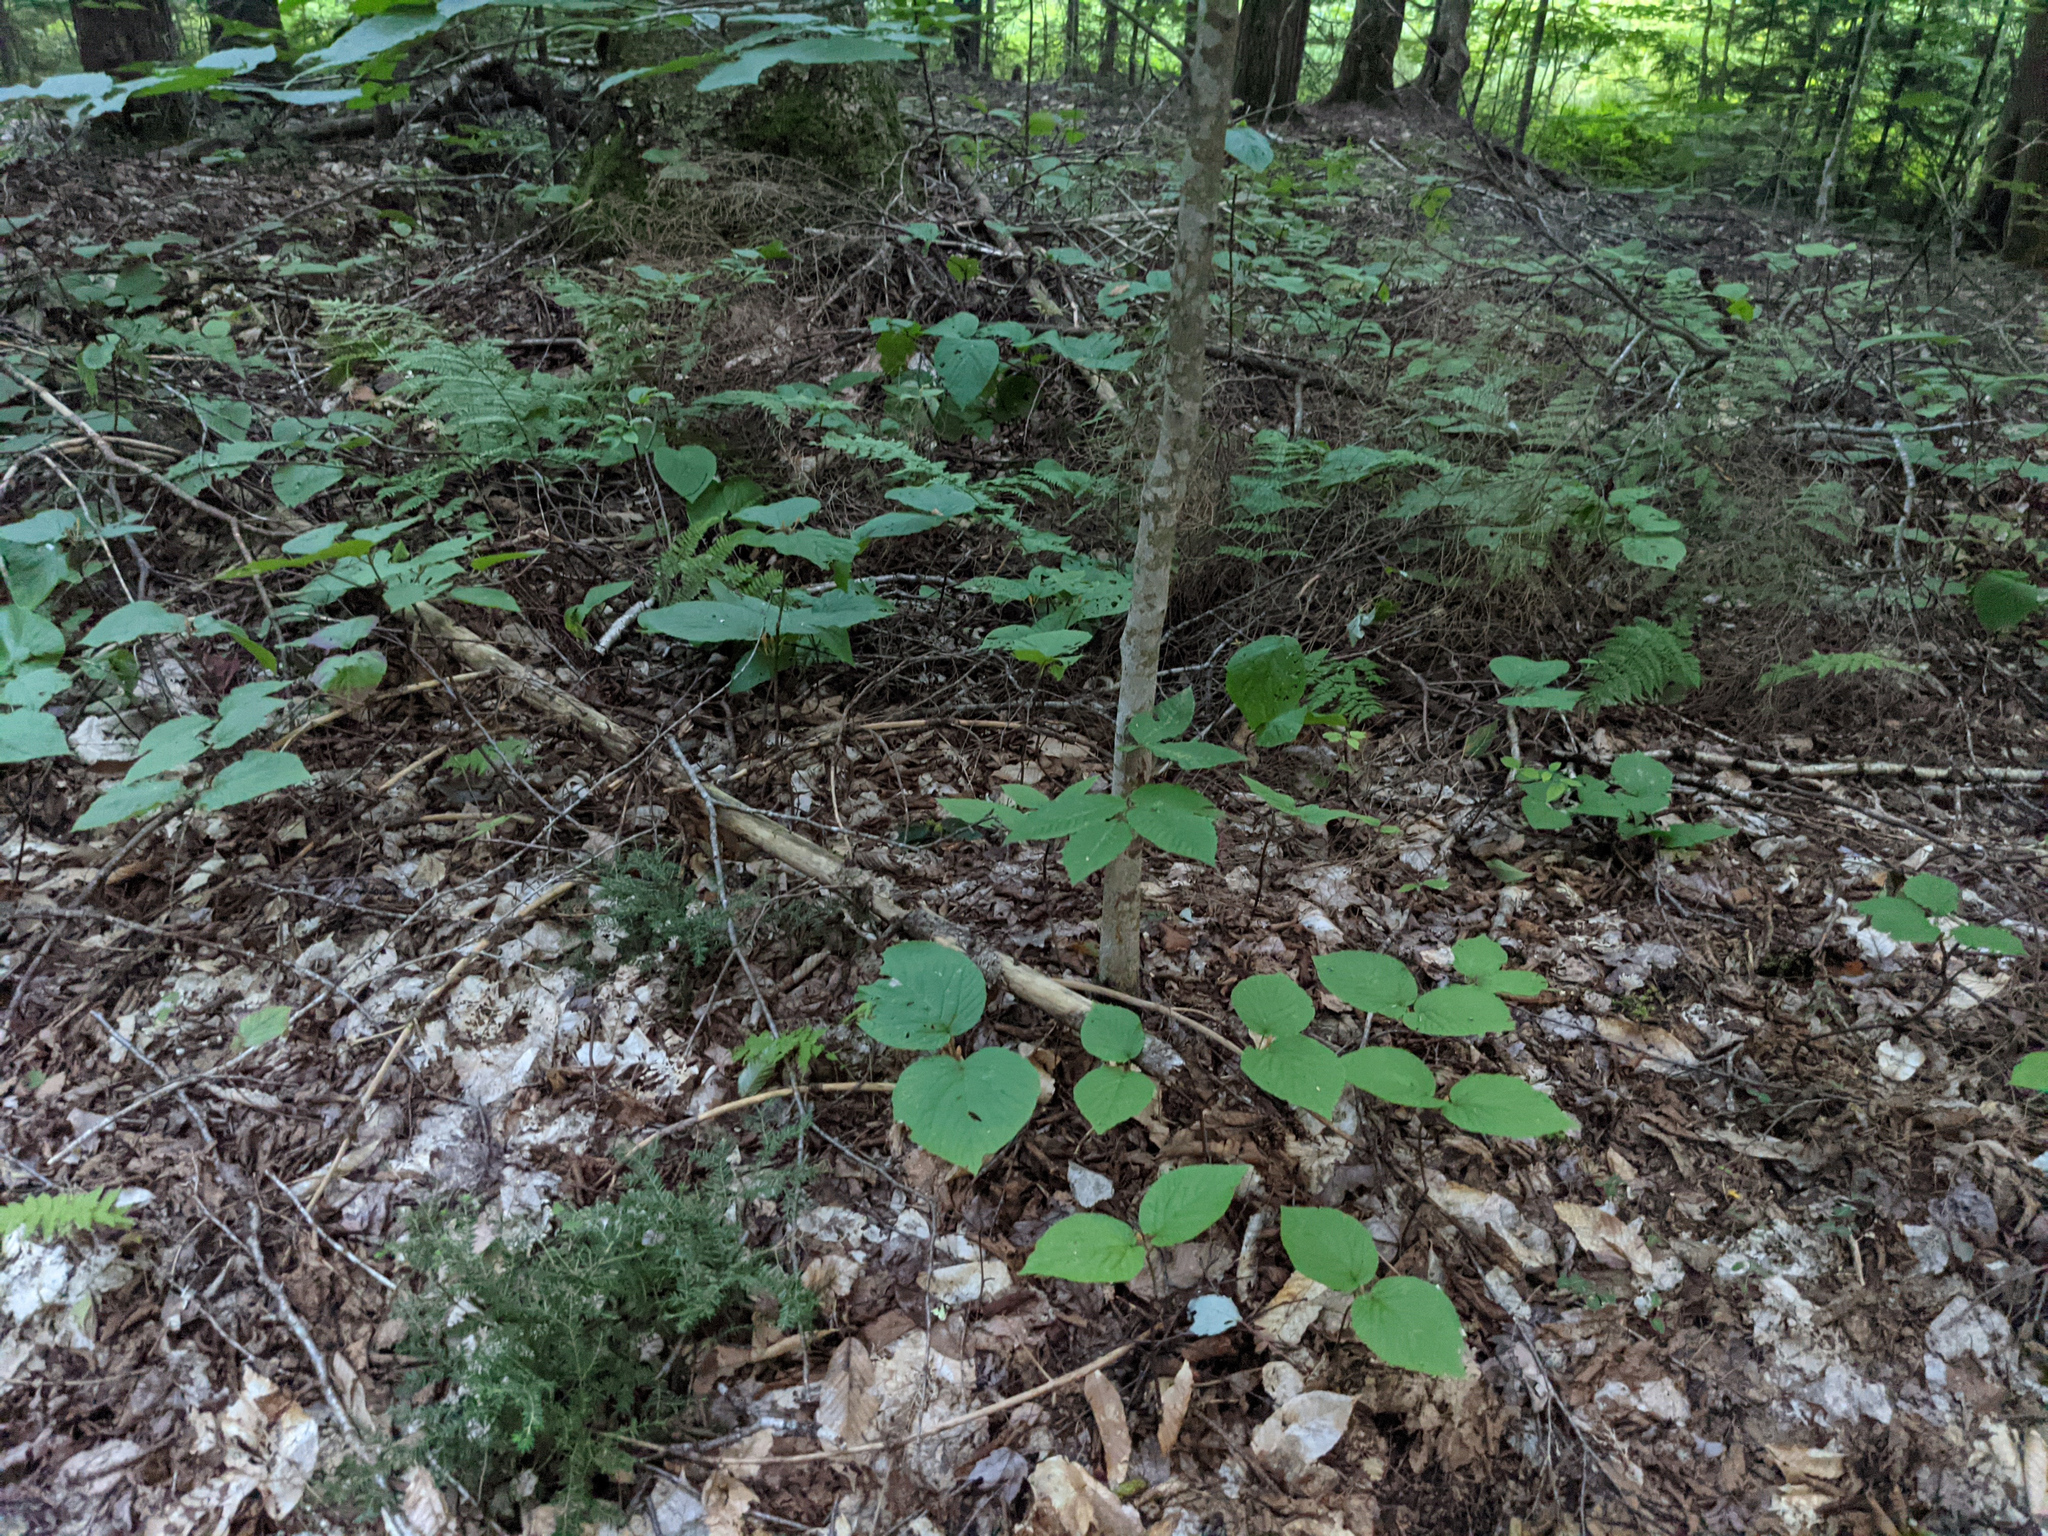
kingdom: Plantae
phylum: Tracheophyta
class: Magnoliopsida
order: Dipsacales
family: Viburnaceae
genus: Viburnum
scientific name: Viburnum lantanoides
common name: Hobblebush
